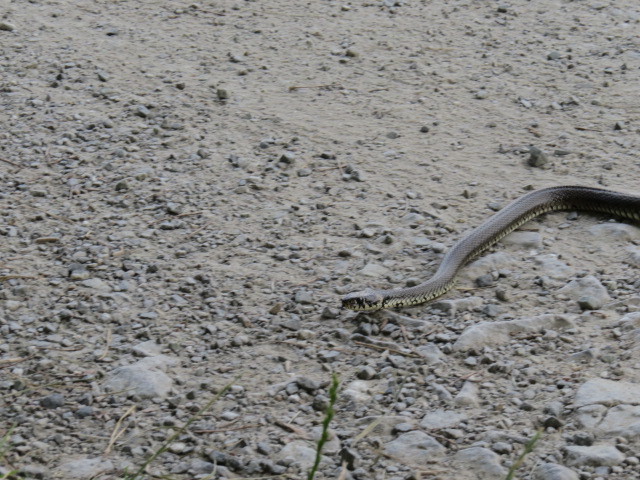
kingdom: Animalia
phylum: Chordata
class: Squamata
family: Colubridae
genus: Natrix
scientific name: Natrix natrix
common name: Grass snake
